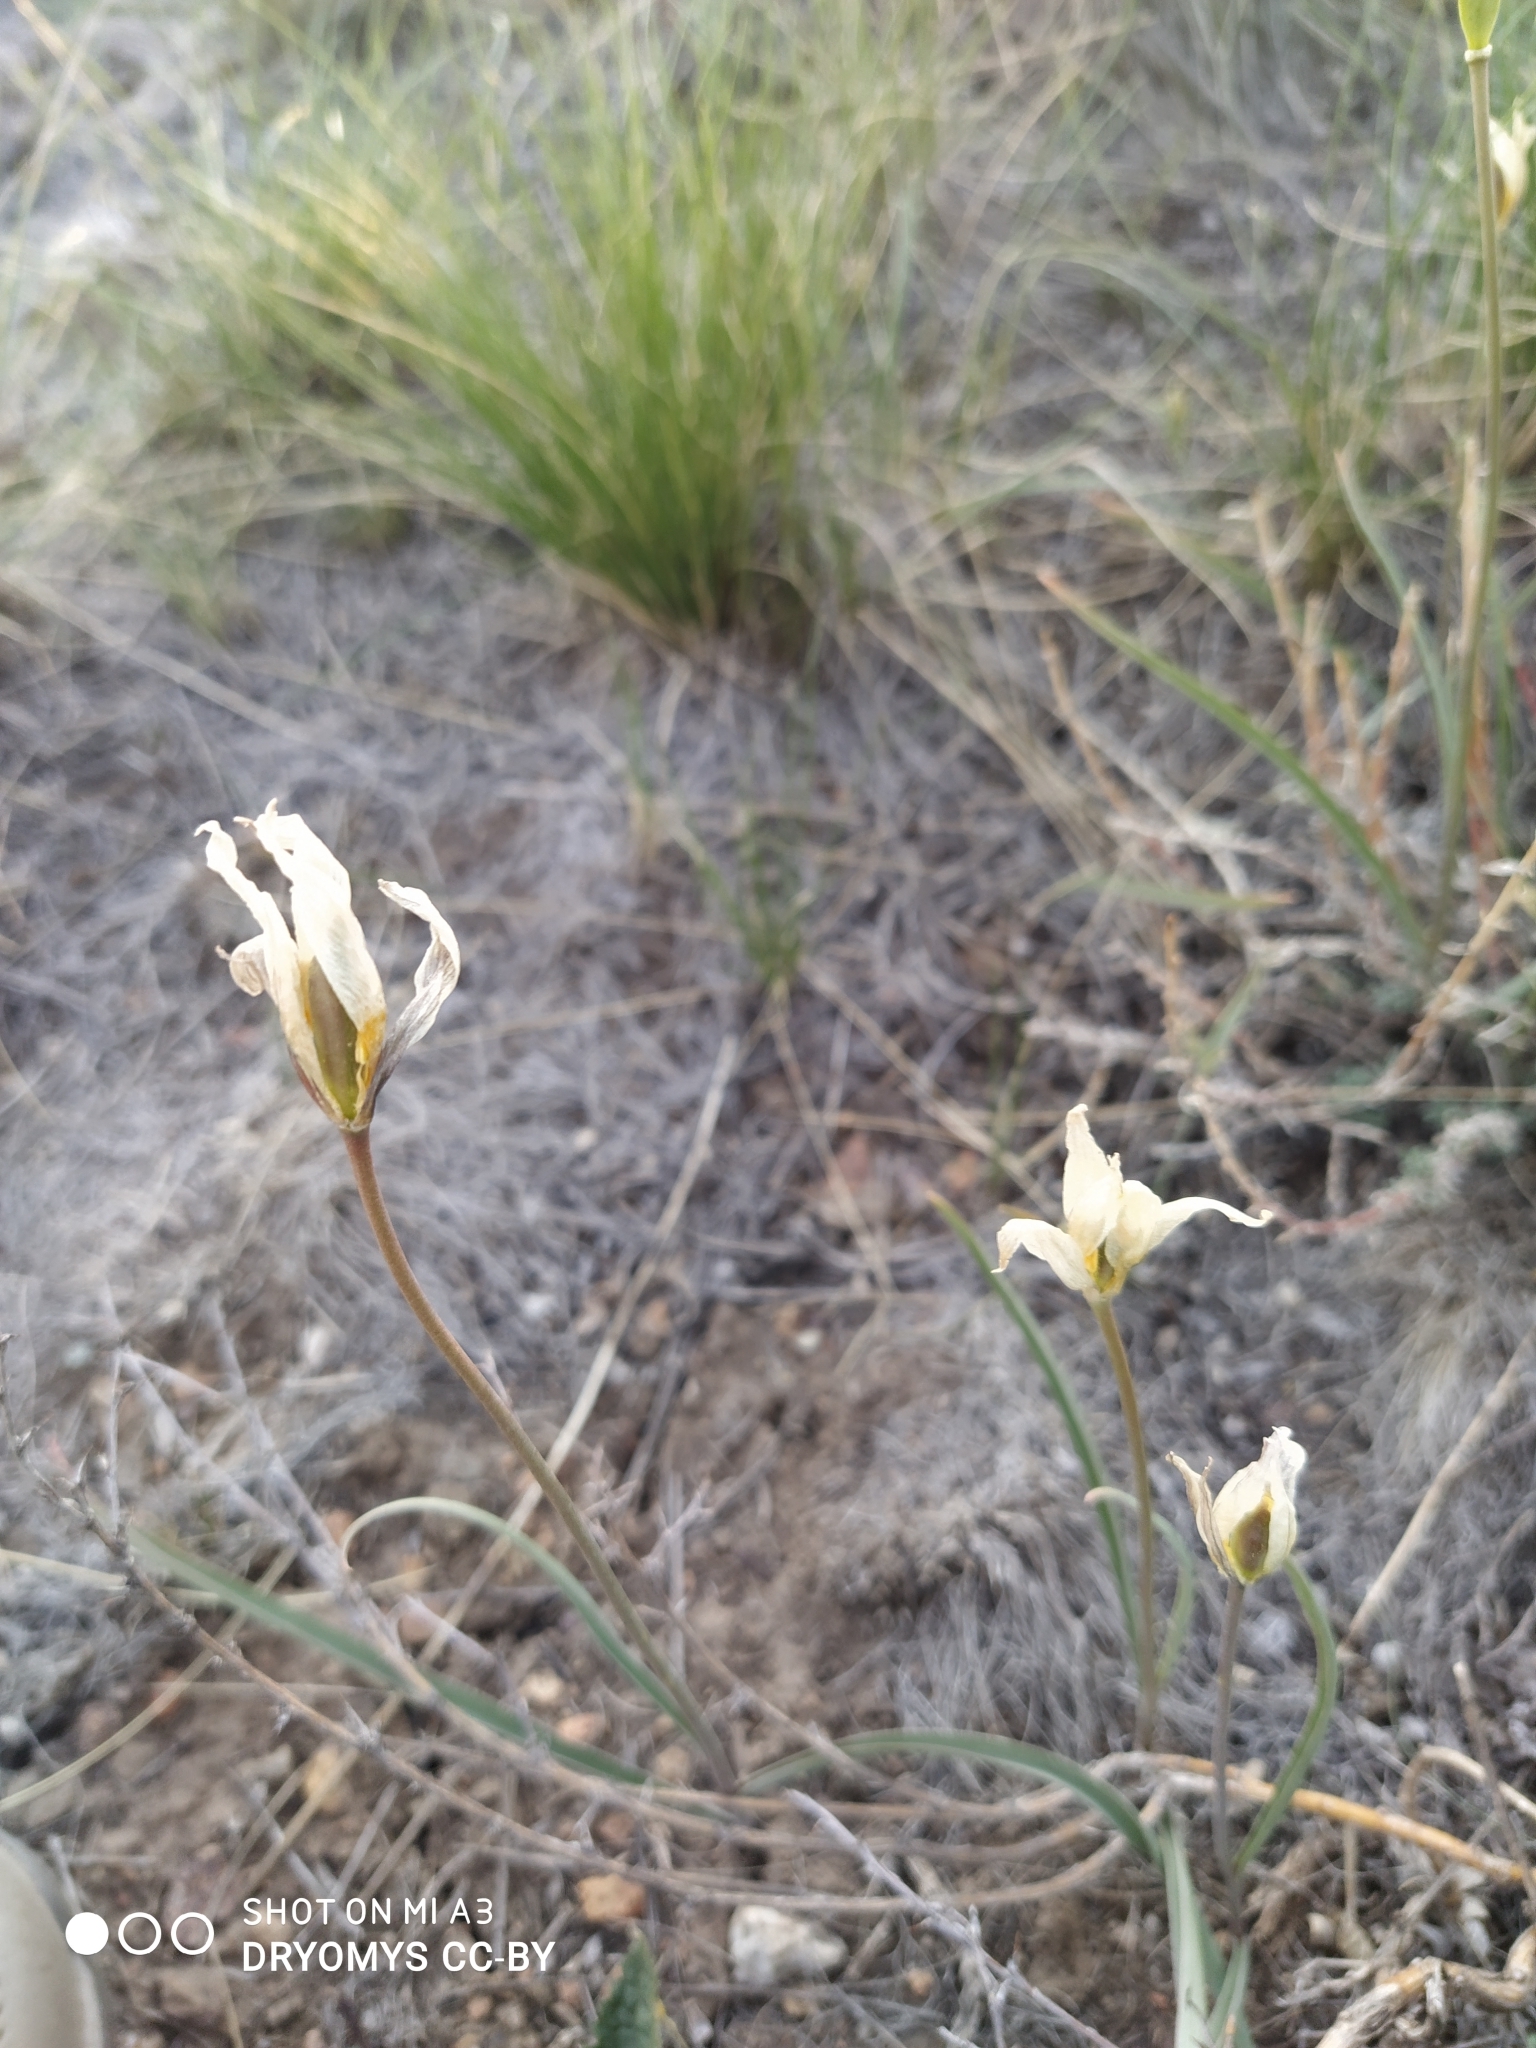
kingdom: Plantae
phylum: Tracheophyta
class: Liliopsida
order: Liliales
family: Liliaceae
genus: Tulipa
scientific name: Tulipa patens
